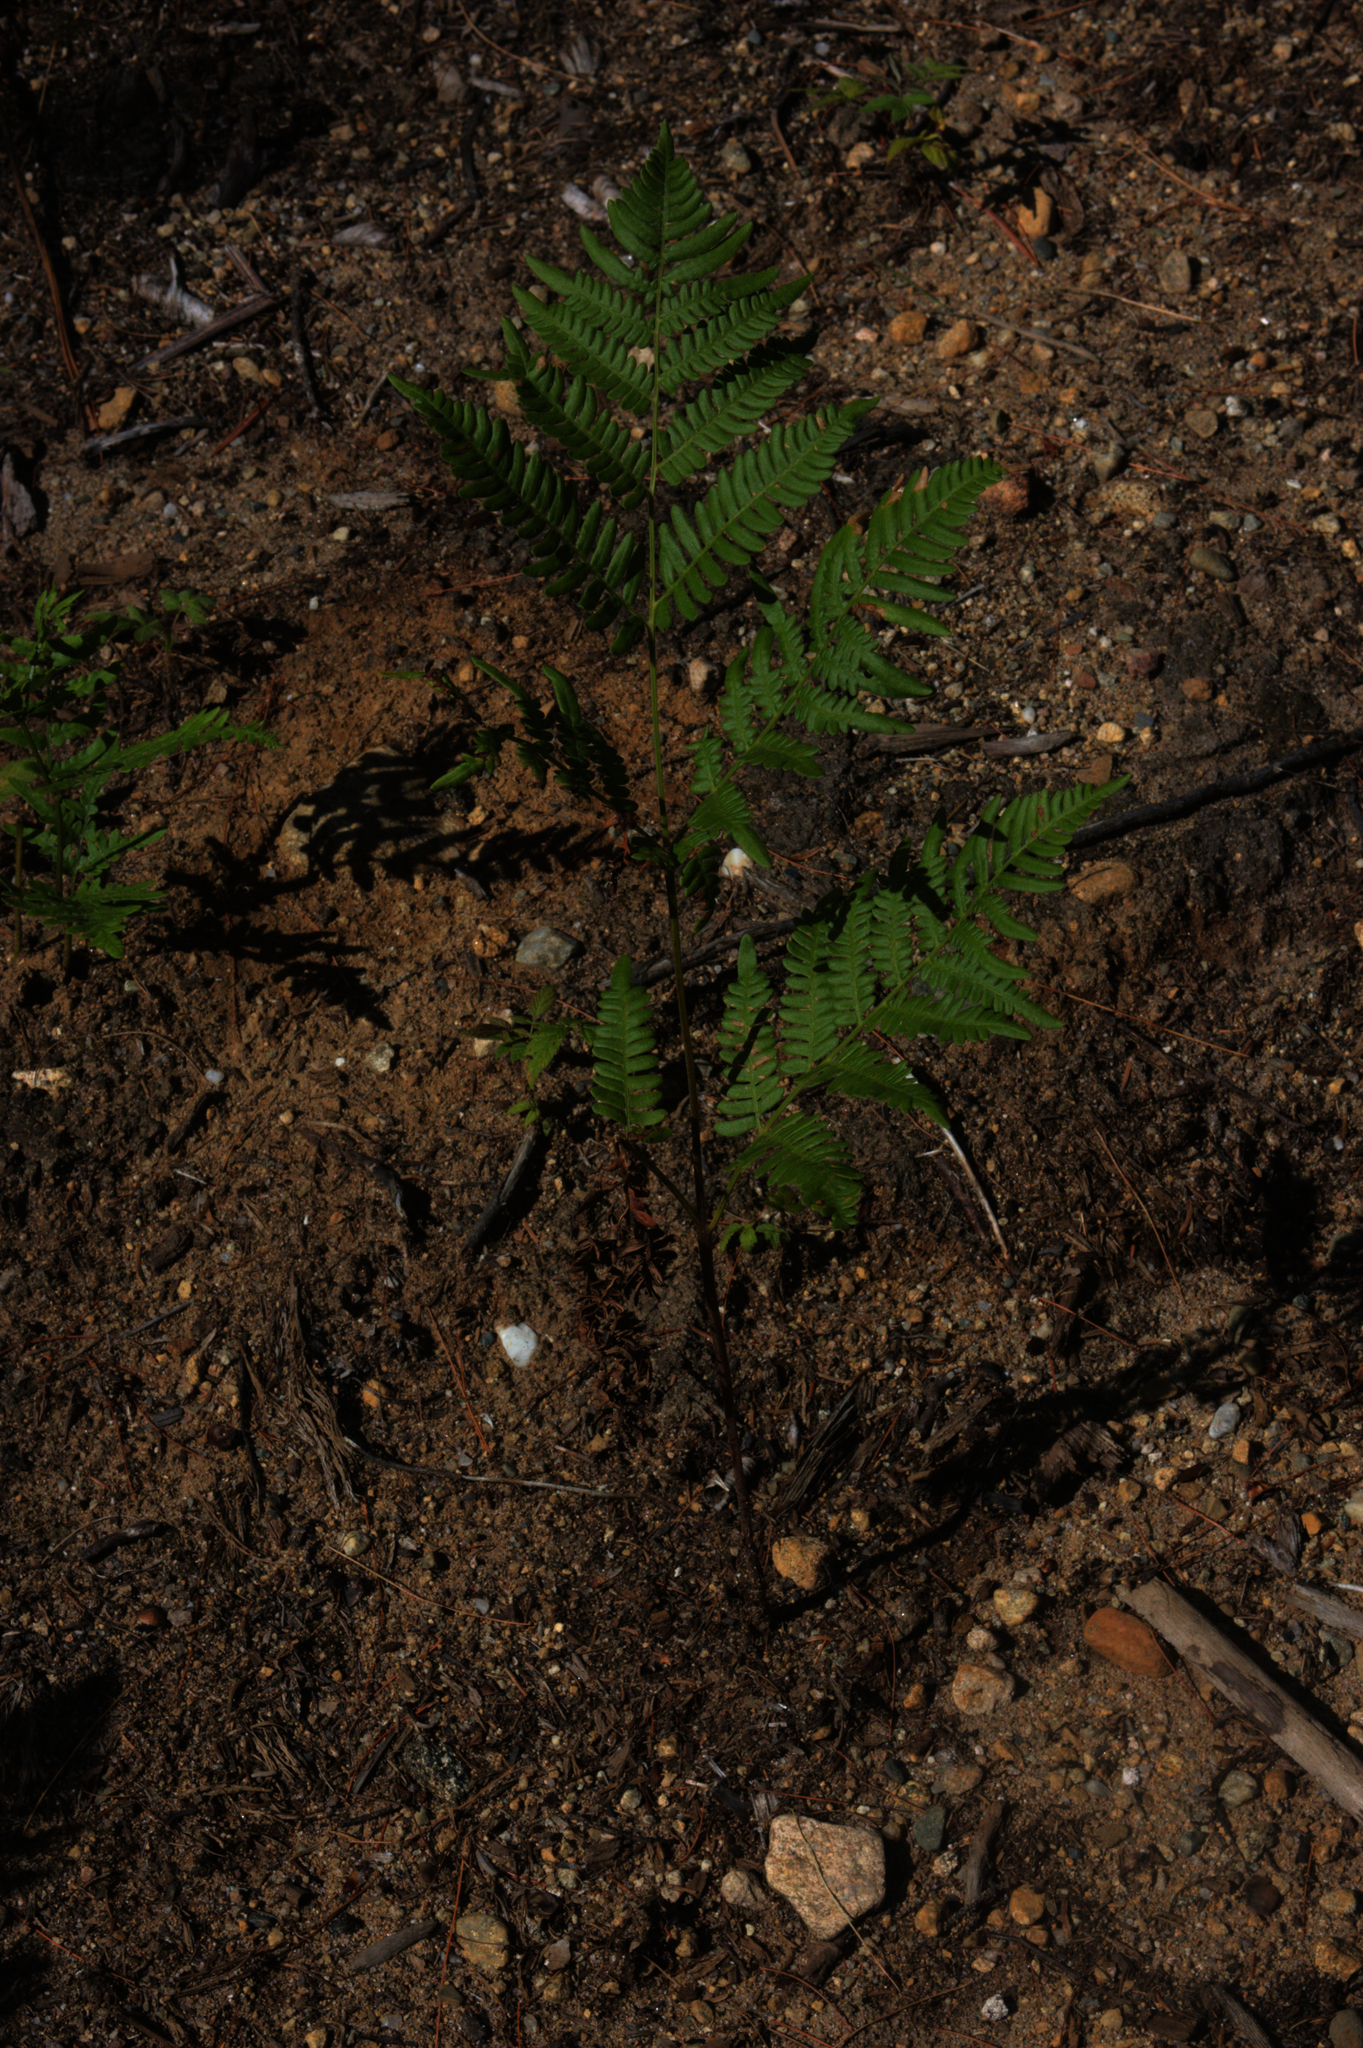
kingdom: Plantae
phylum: Tracheophyta
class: Polypodiopsida
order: Polypodiales
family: Dennstaedtiaceae
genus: Pteridium
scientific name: Pteridium aquilinum
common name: Bracken
